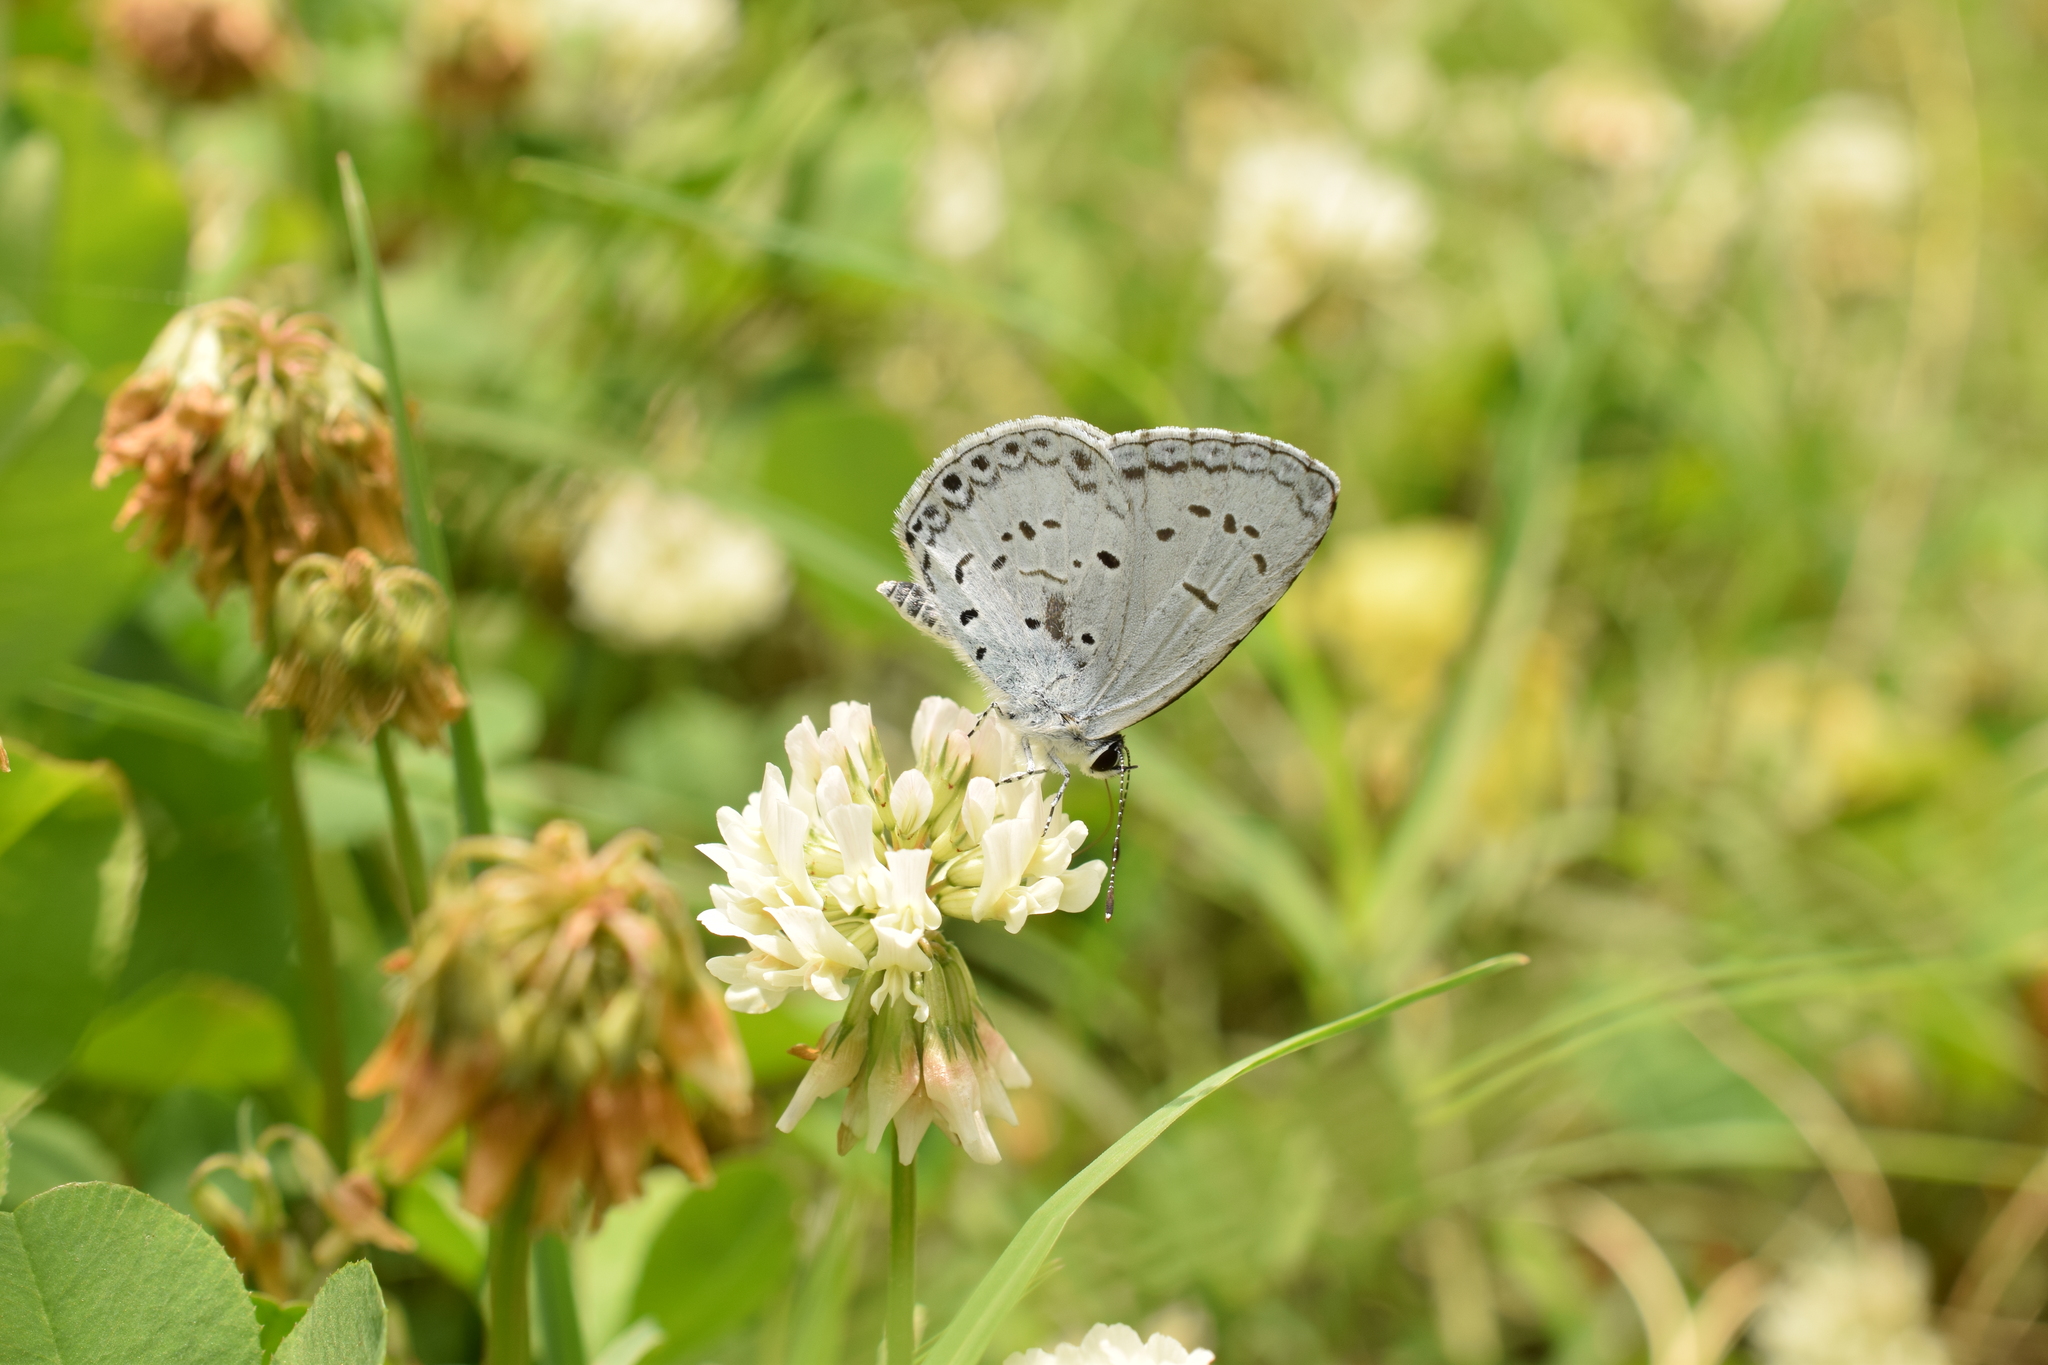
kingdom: Animalia
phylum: Arthropoda
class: Insecta
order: Lepidoptera
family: Lycaenidae
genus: Acytolepis
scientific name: Acytolepis puspa
